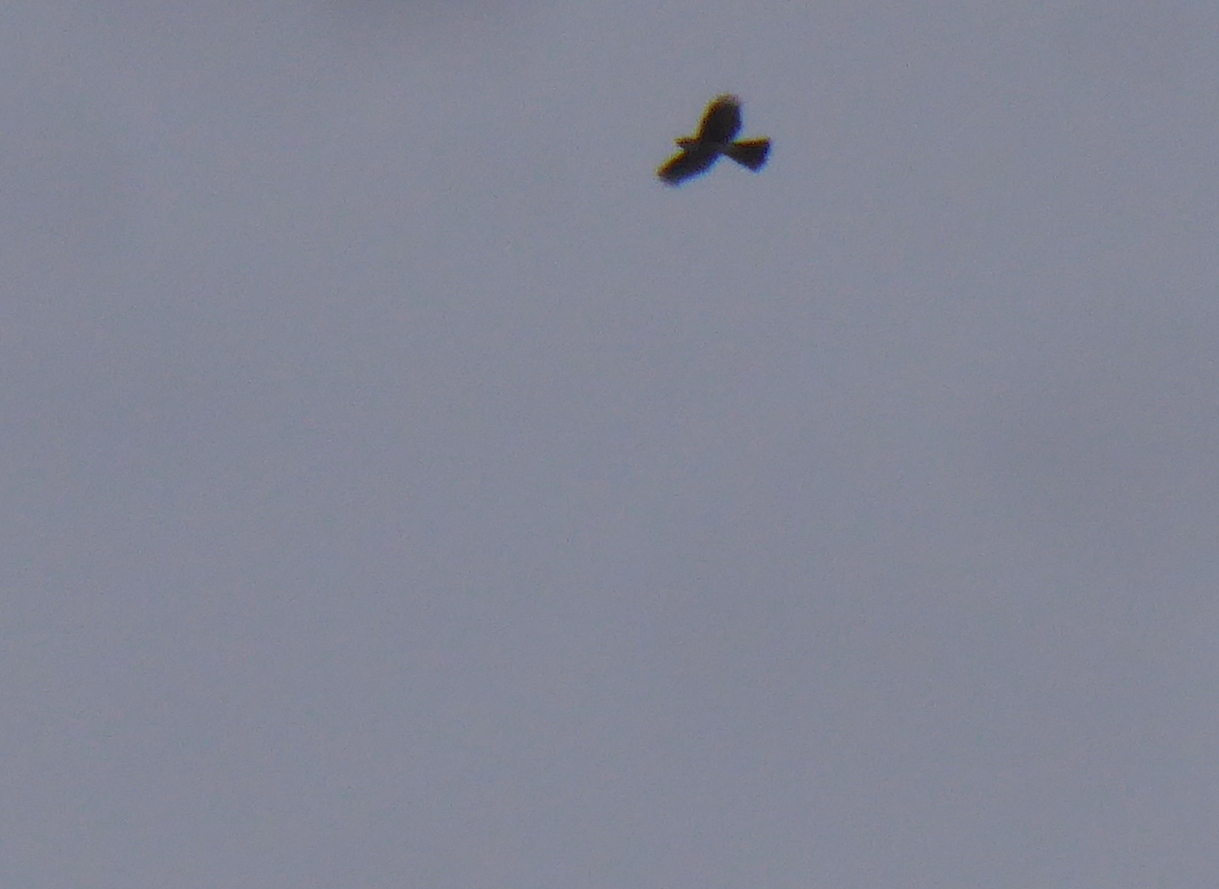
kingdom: Animalia
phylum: Chordata
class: Aves
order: Accipitriformes
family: Accipitridae
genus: Accipiter
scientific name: Accipiter striatus
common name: Sharp-shinned hawk
